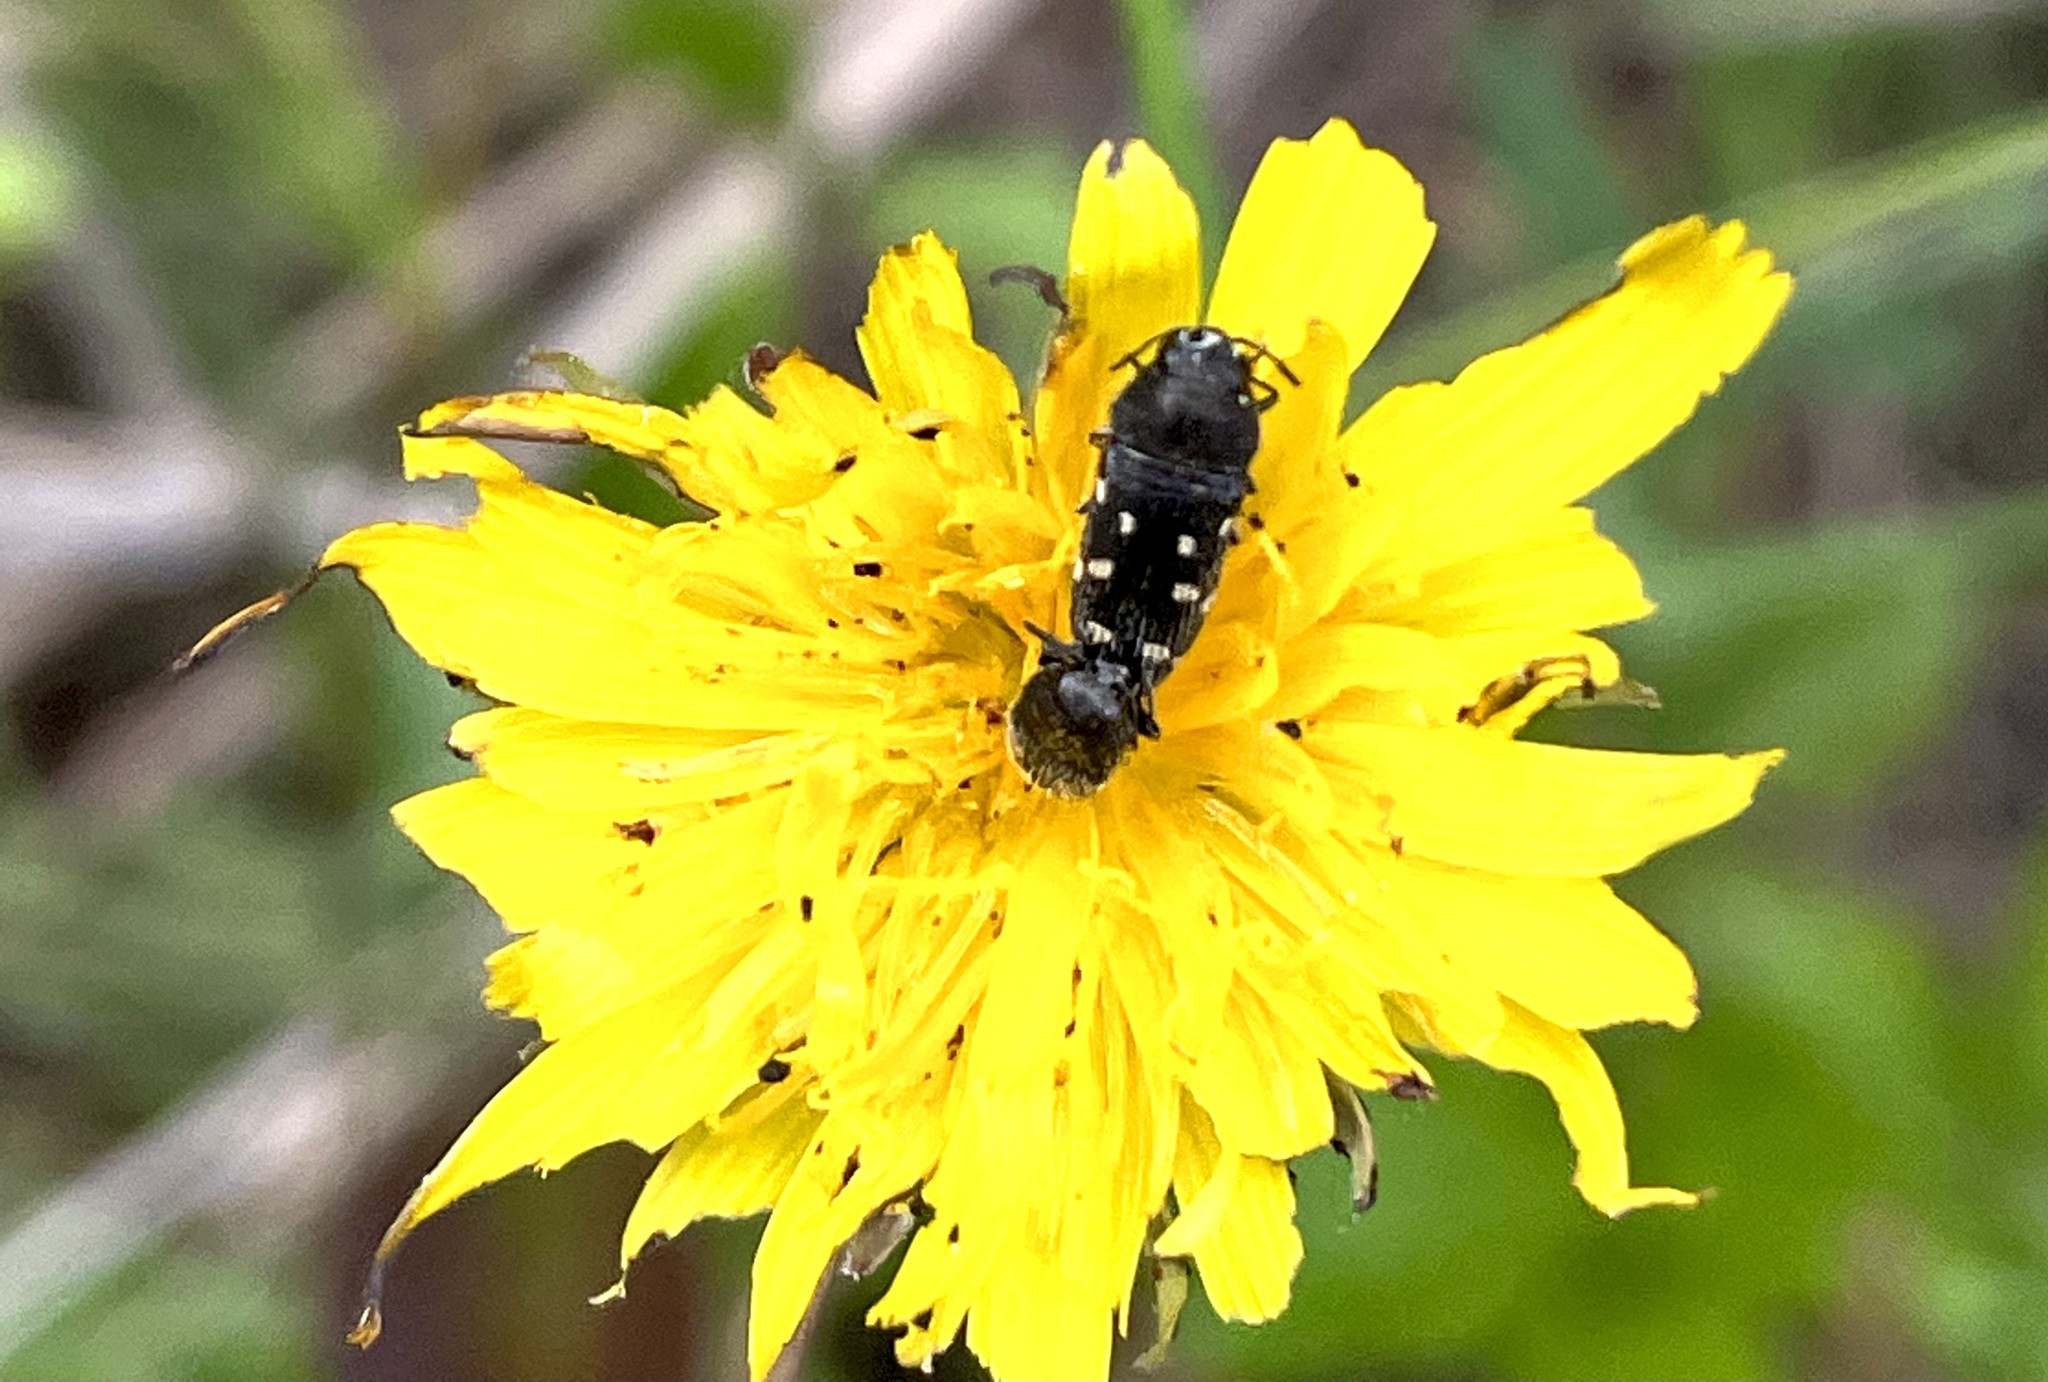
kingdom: Animalia
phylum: Arthropoda
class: Insecta
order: Coleoptera
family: Buprestidae
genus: Acmaeodera
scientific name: Acmaeodera tubulus
